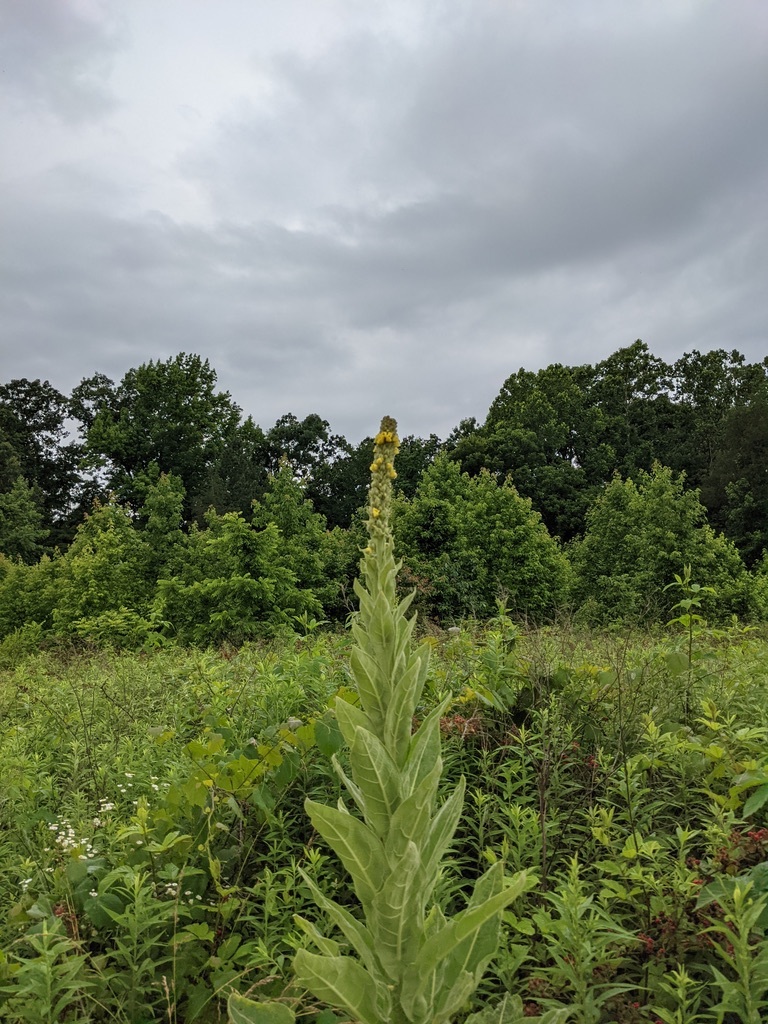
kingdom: Plantae
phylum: Tracheophyta
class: Magnoliopsida
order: Lamiales
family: Scrophulariaceae
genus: Verbascum
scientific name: Verbascum thapsus
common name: Common mullein
